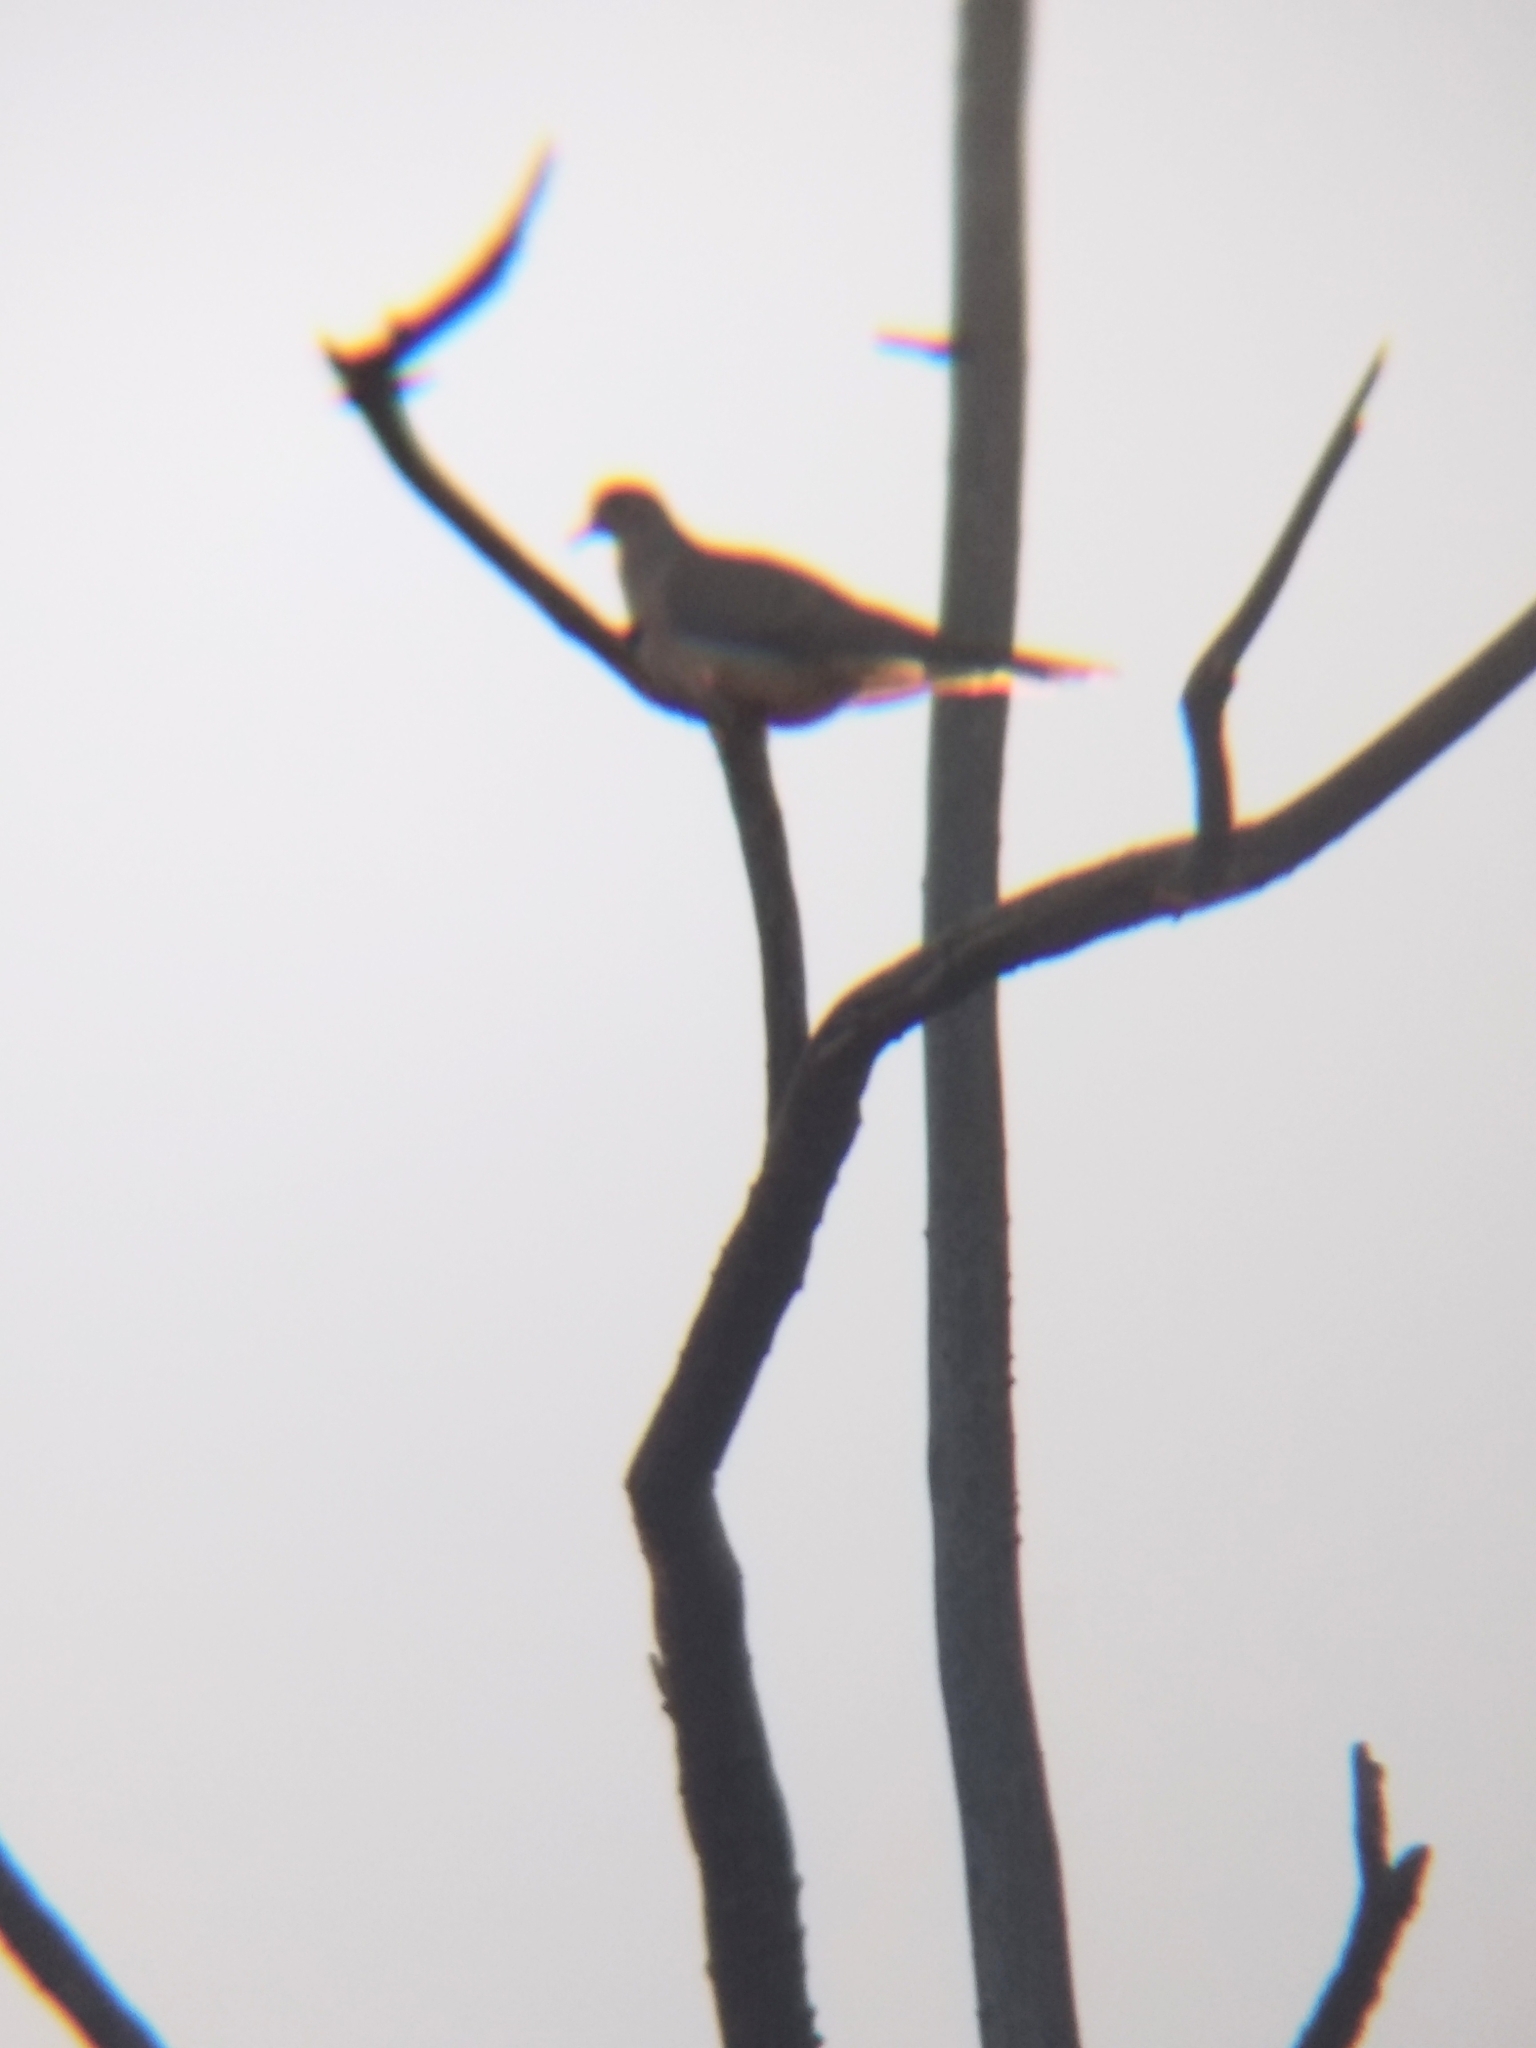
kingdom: Animalia
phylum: Chordata
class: Aves
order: Columbiformes
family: Columbidae
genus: Zenaida
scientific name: Zenaida macroura
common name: Mourning dove
